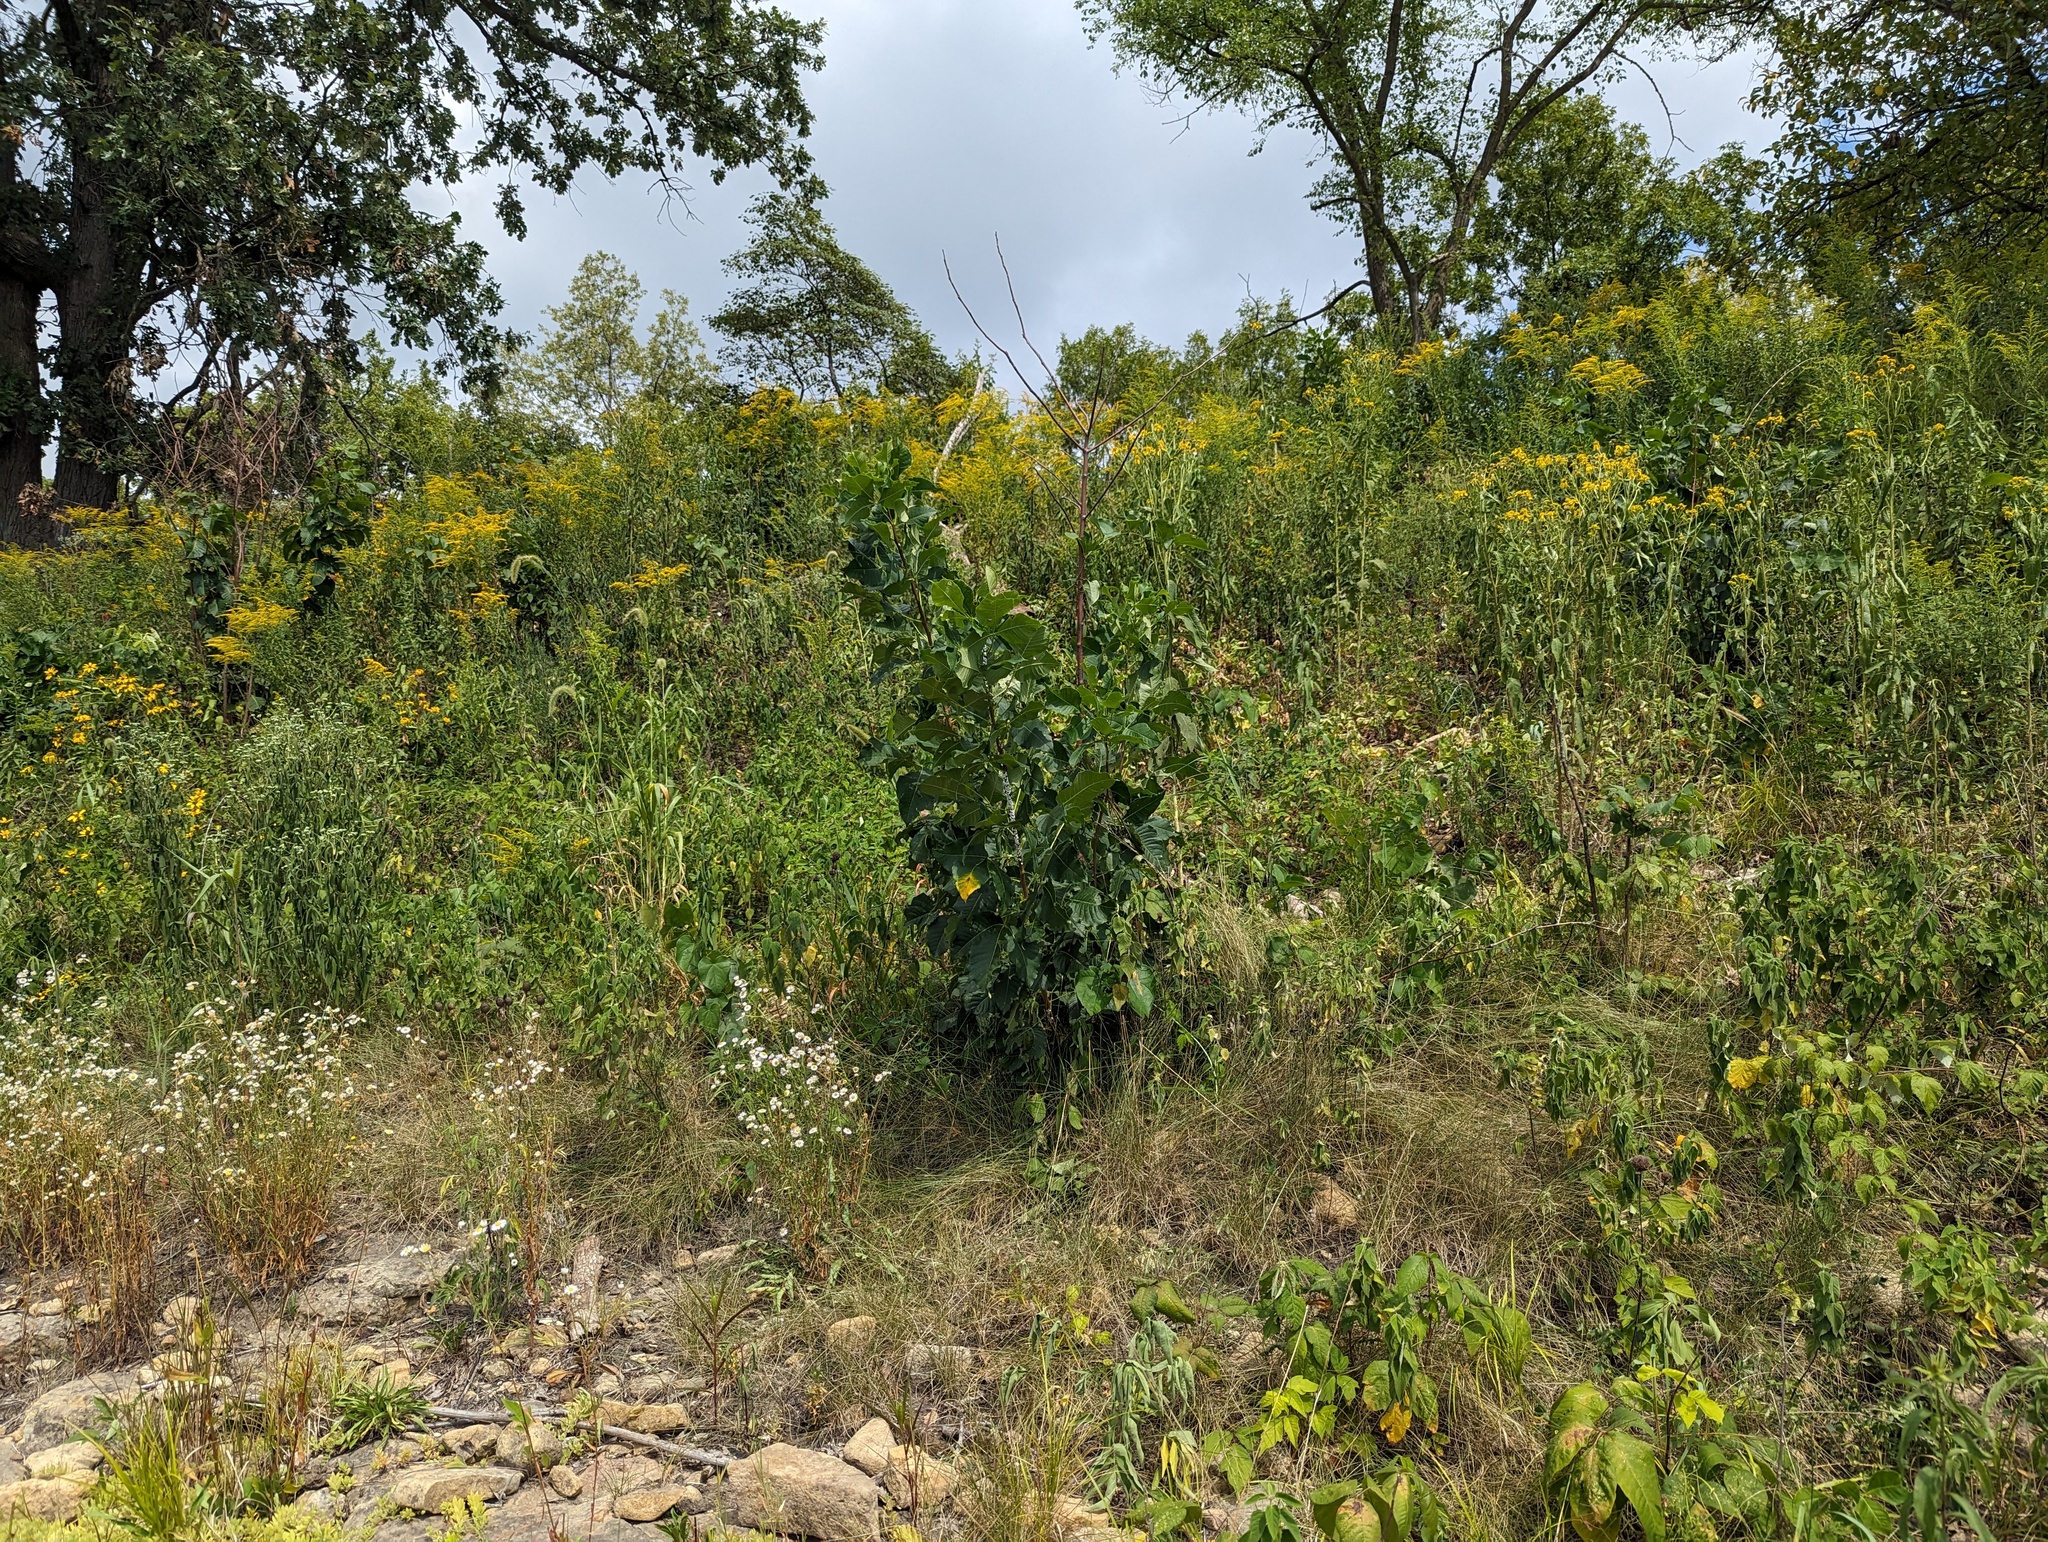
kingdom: Plantae
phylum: Tracheophyta
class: Magnoliopsida
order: Sapindales
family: Rutaceae
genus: Ptelea
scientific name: Ptelea trifoliata
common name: Common hop-tree
